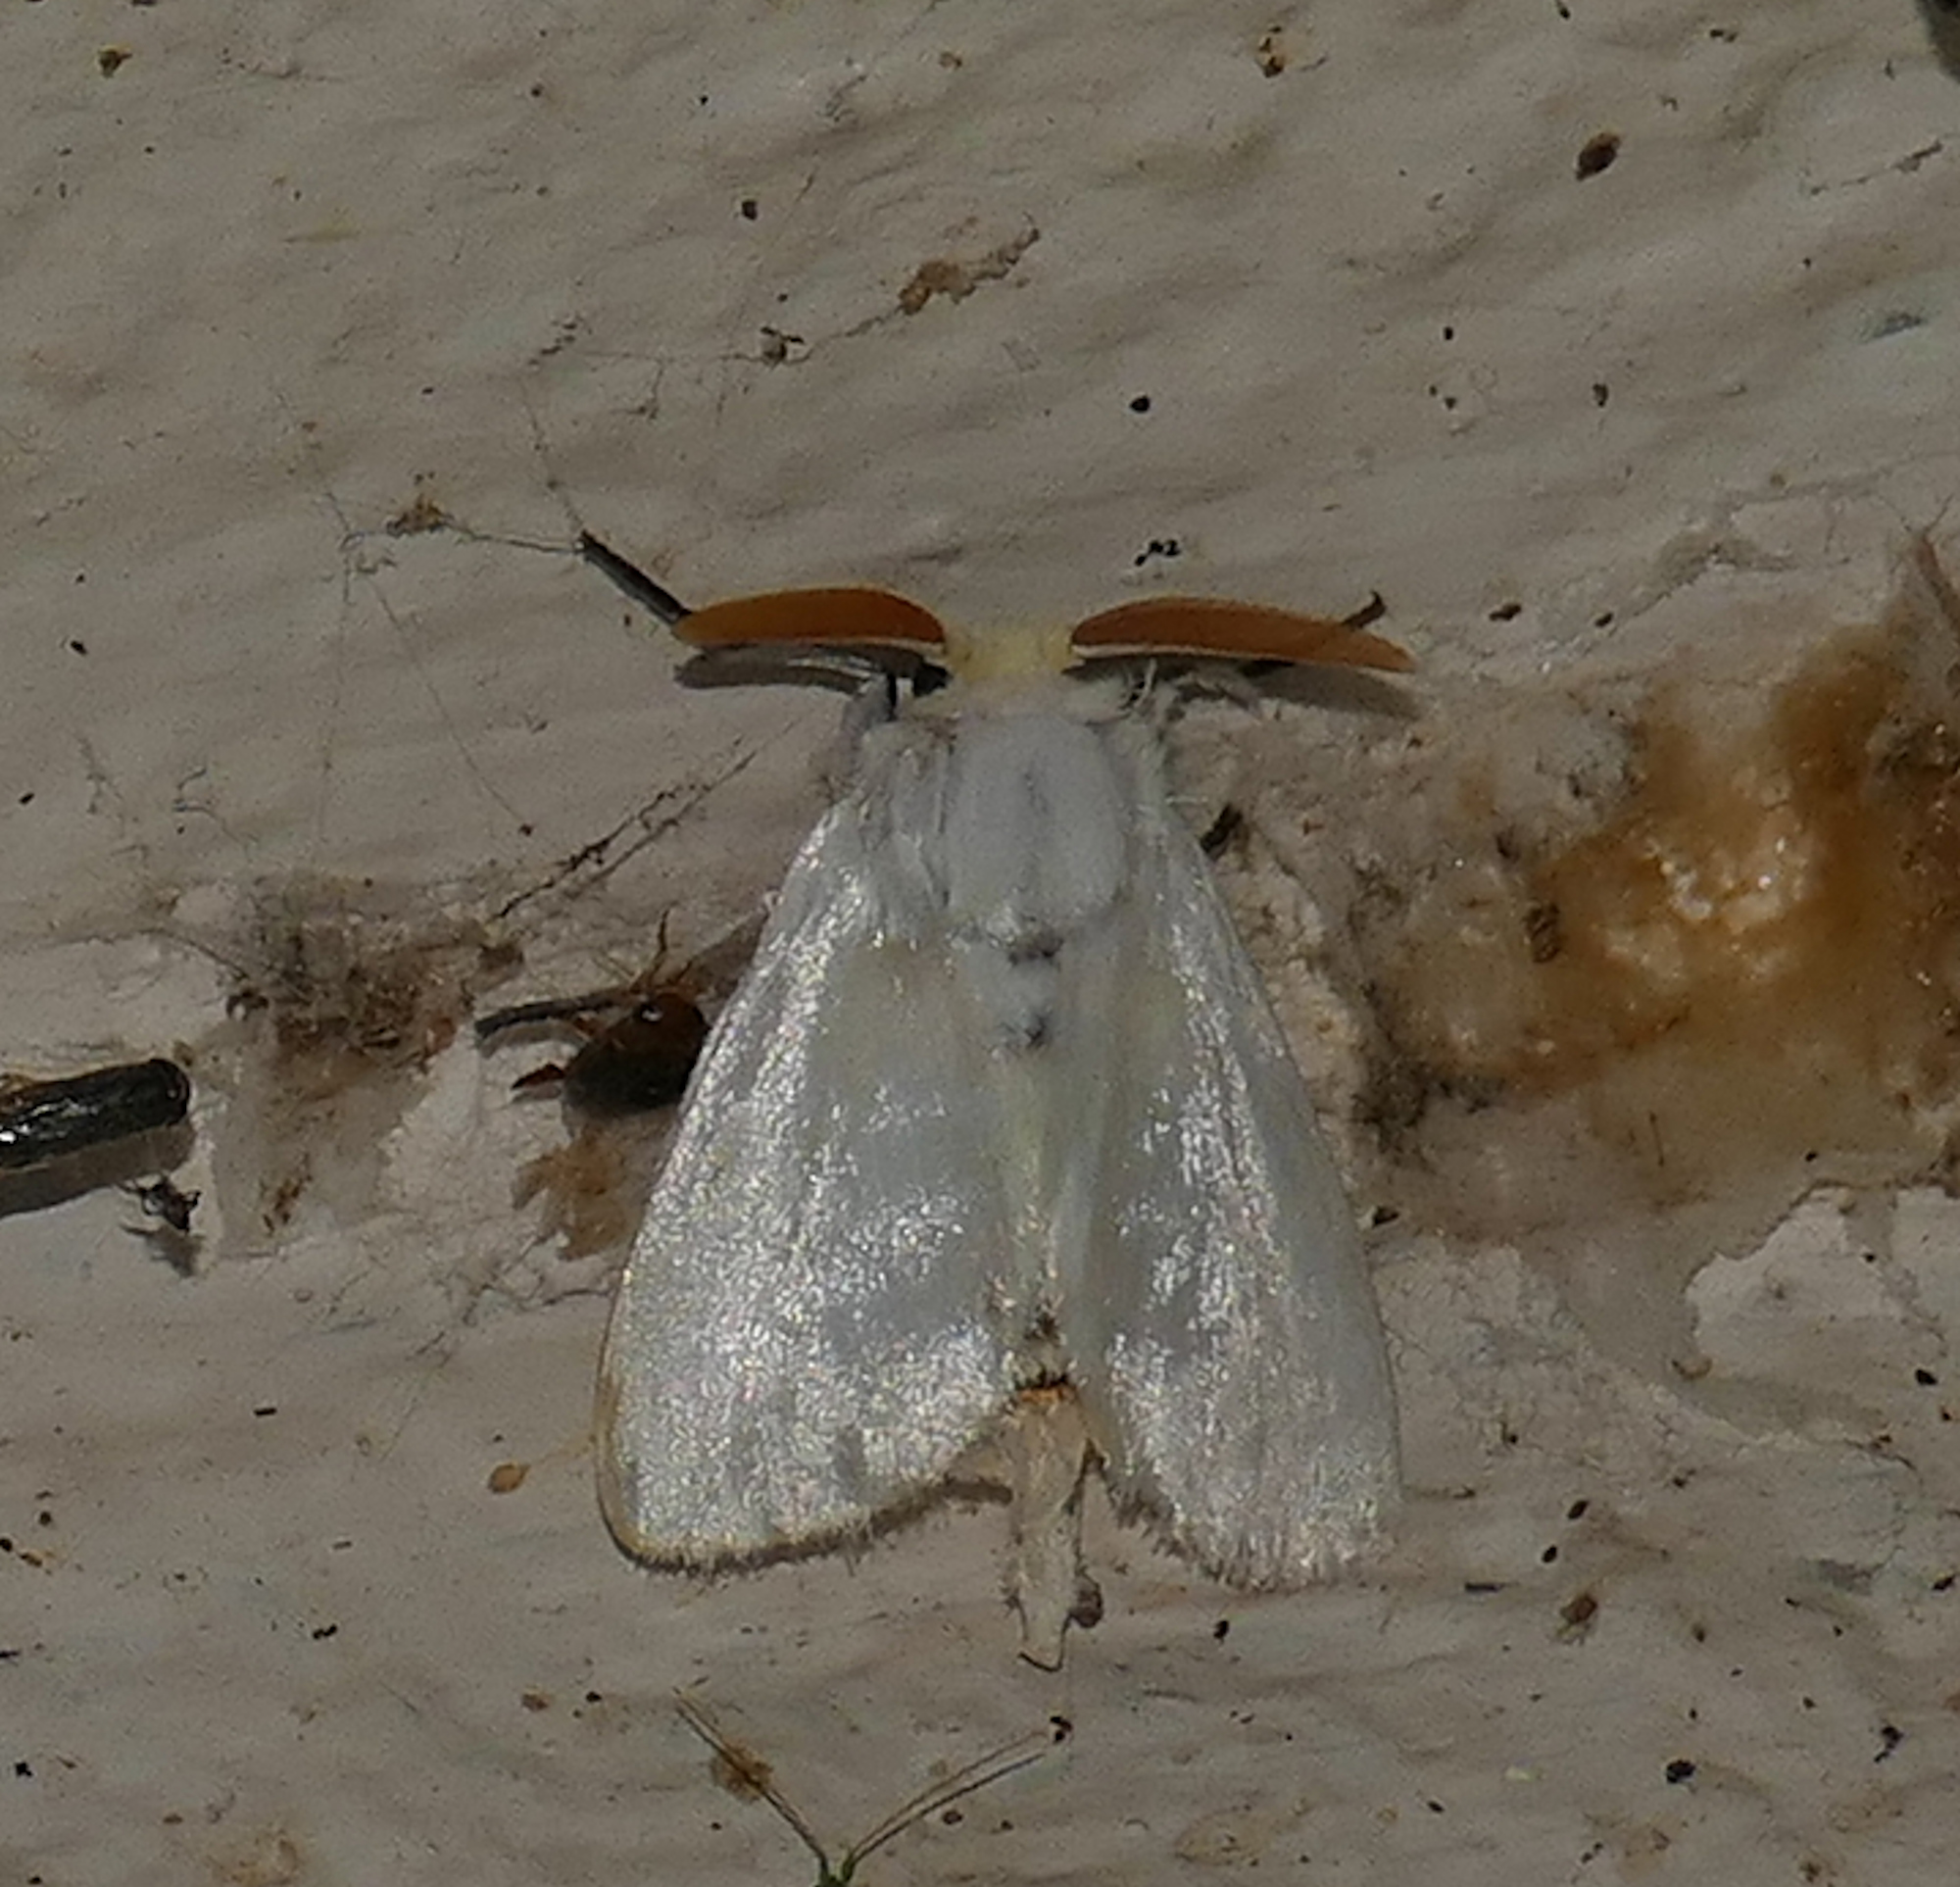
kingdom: Animalia
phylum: Arthropoda
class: Insecta
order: Lepidoptera
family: Megalopygidae
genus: Norape
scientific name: Norape virgo
